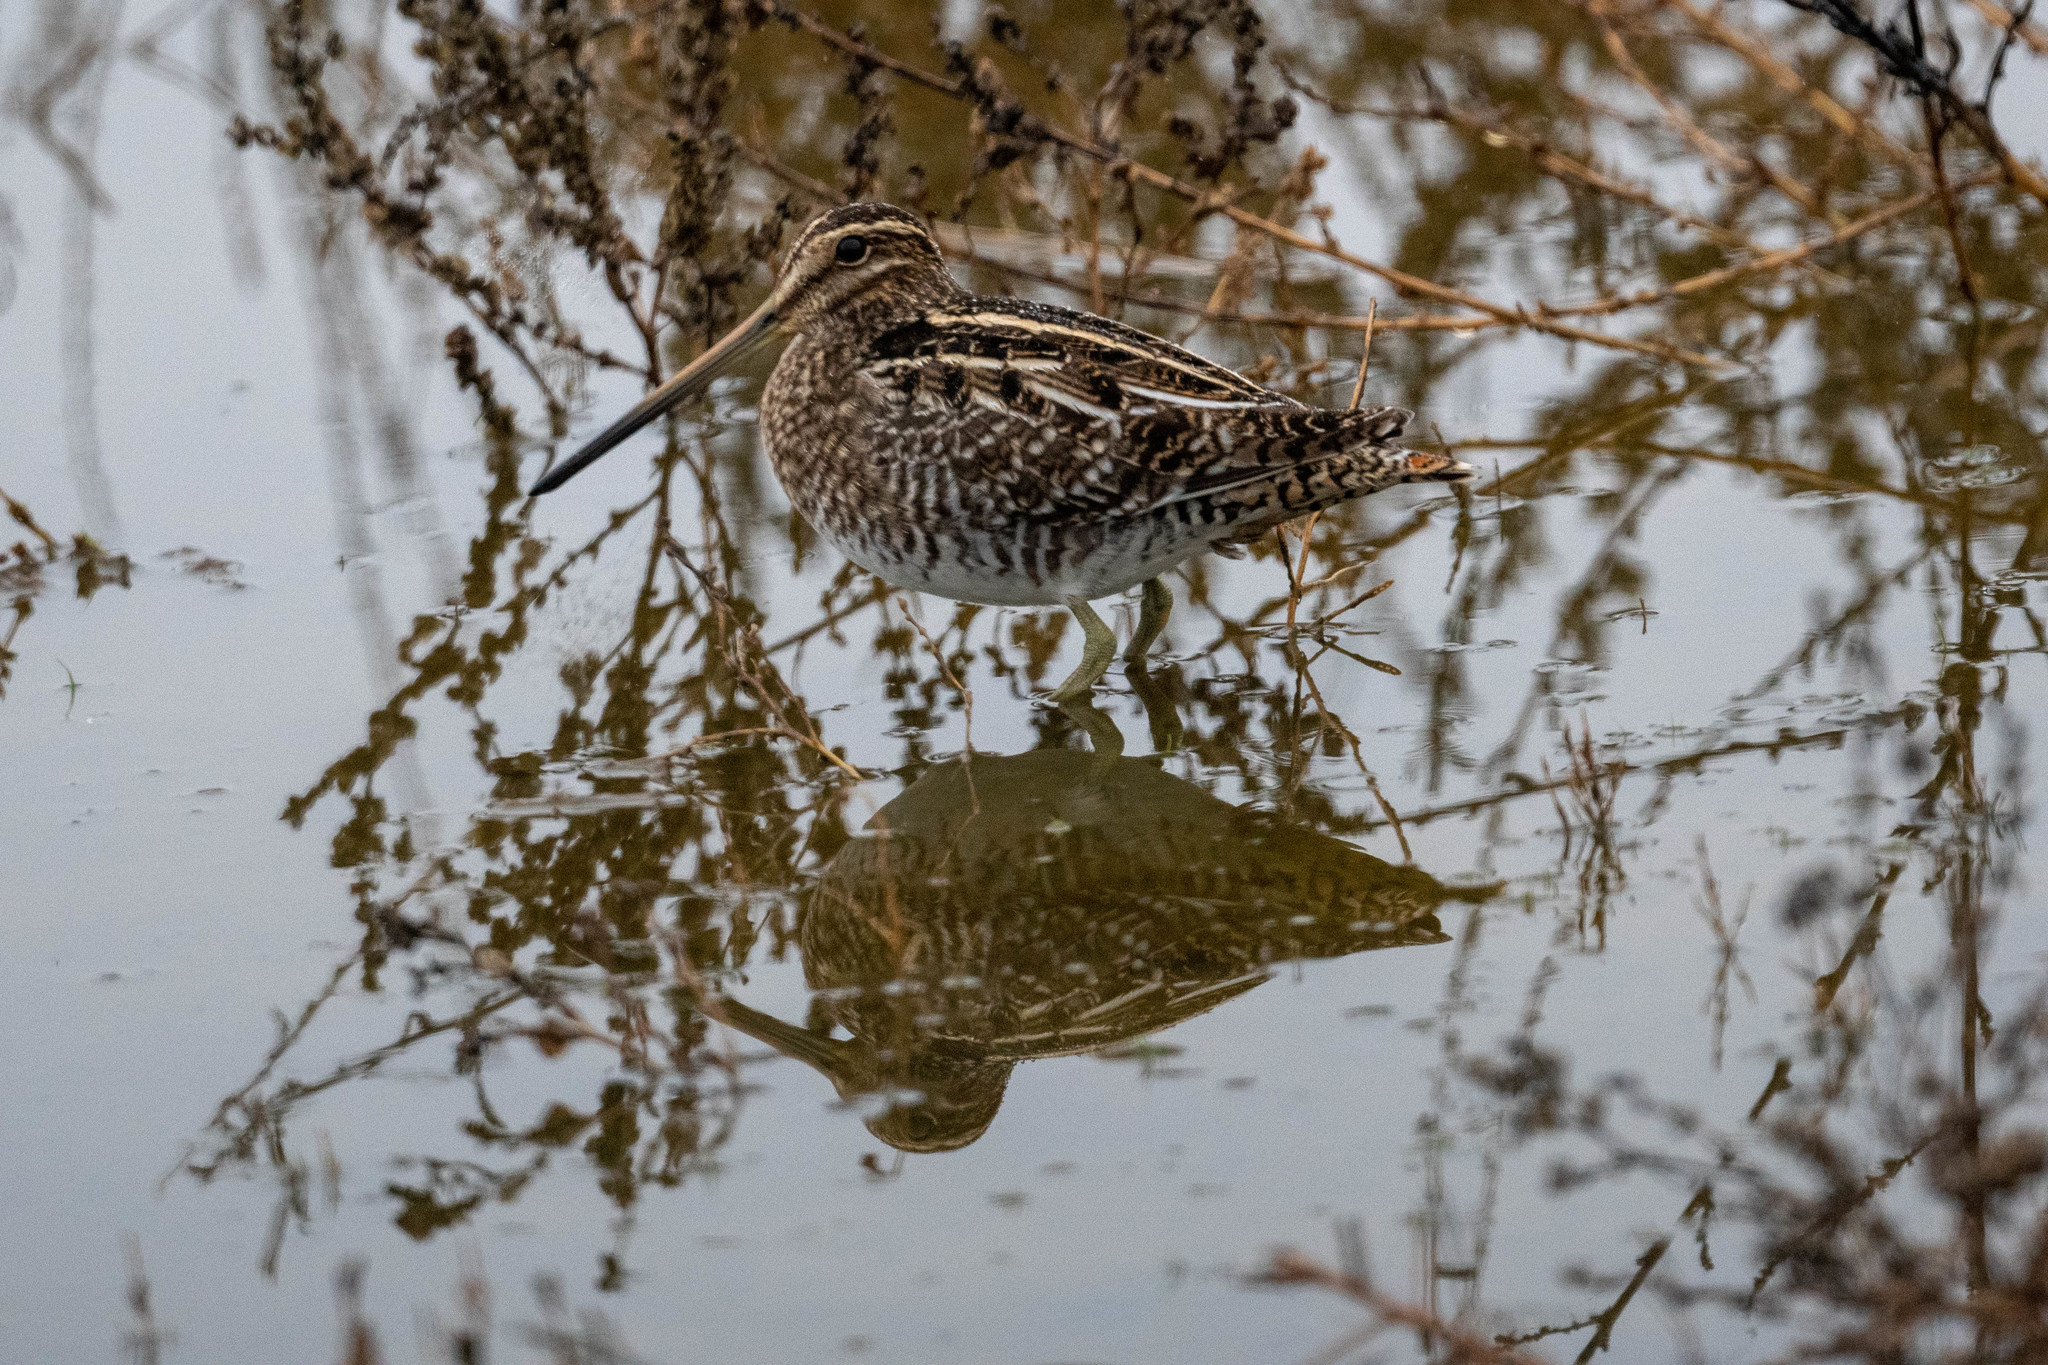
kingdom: Animalia
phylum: Chordata
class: Aves
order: Charadriiformes
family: Scolopacidae
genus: Gallinago
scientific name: Gallinago delicata
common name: Wilson's snipe
